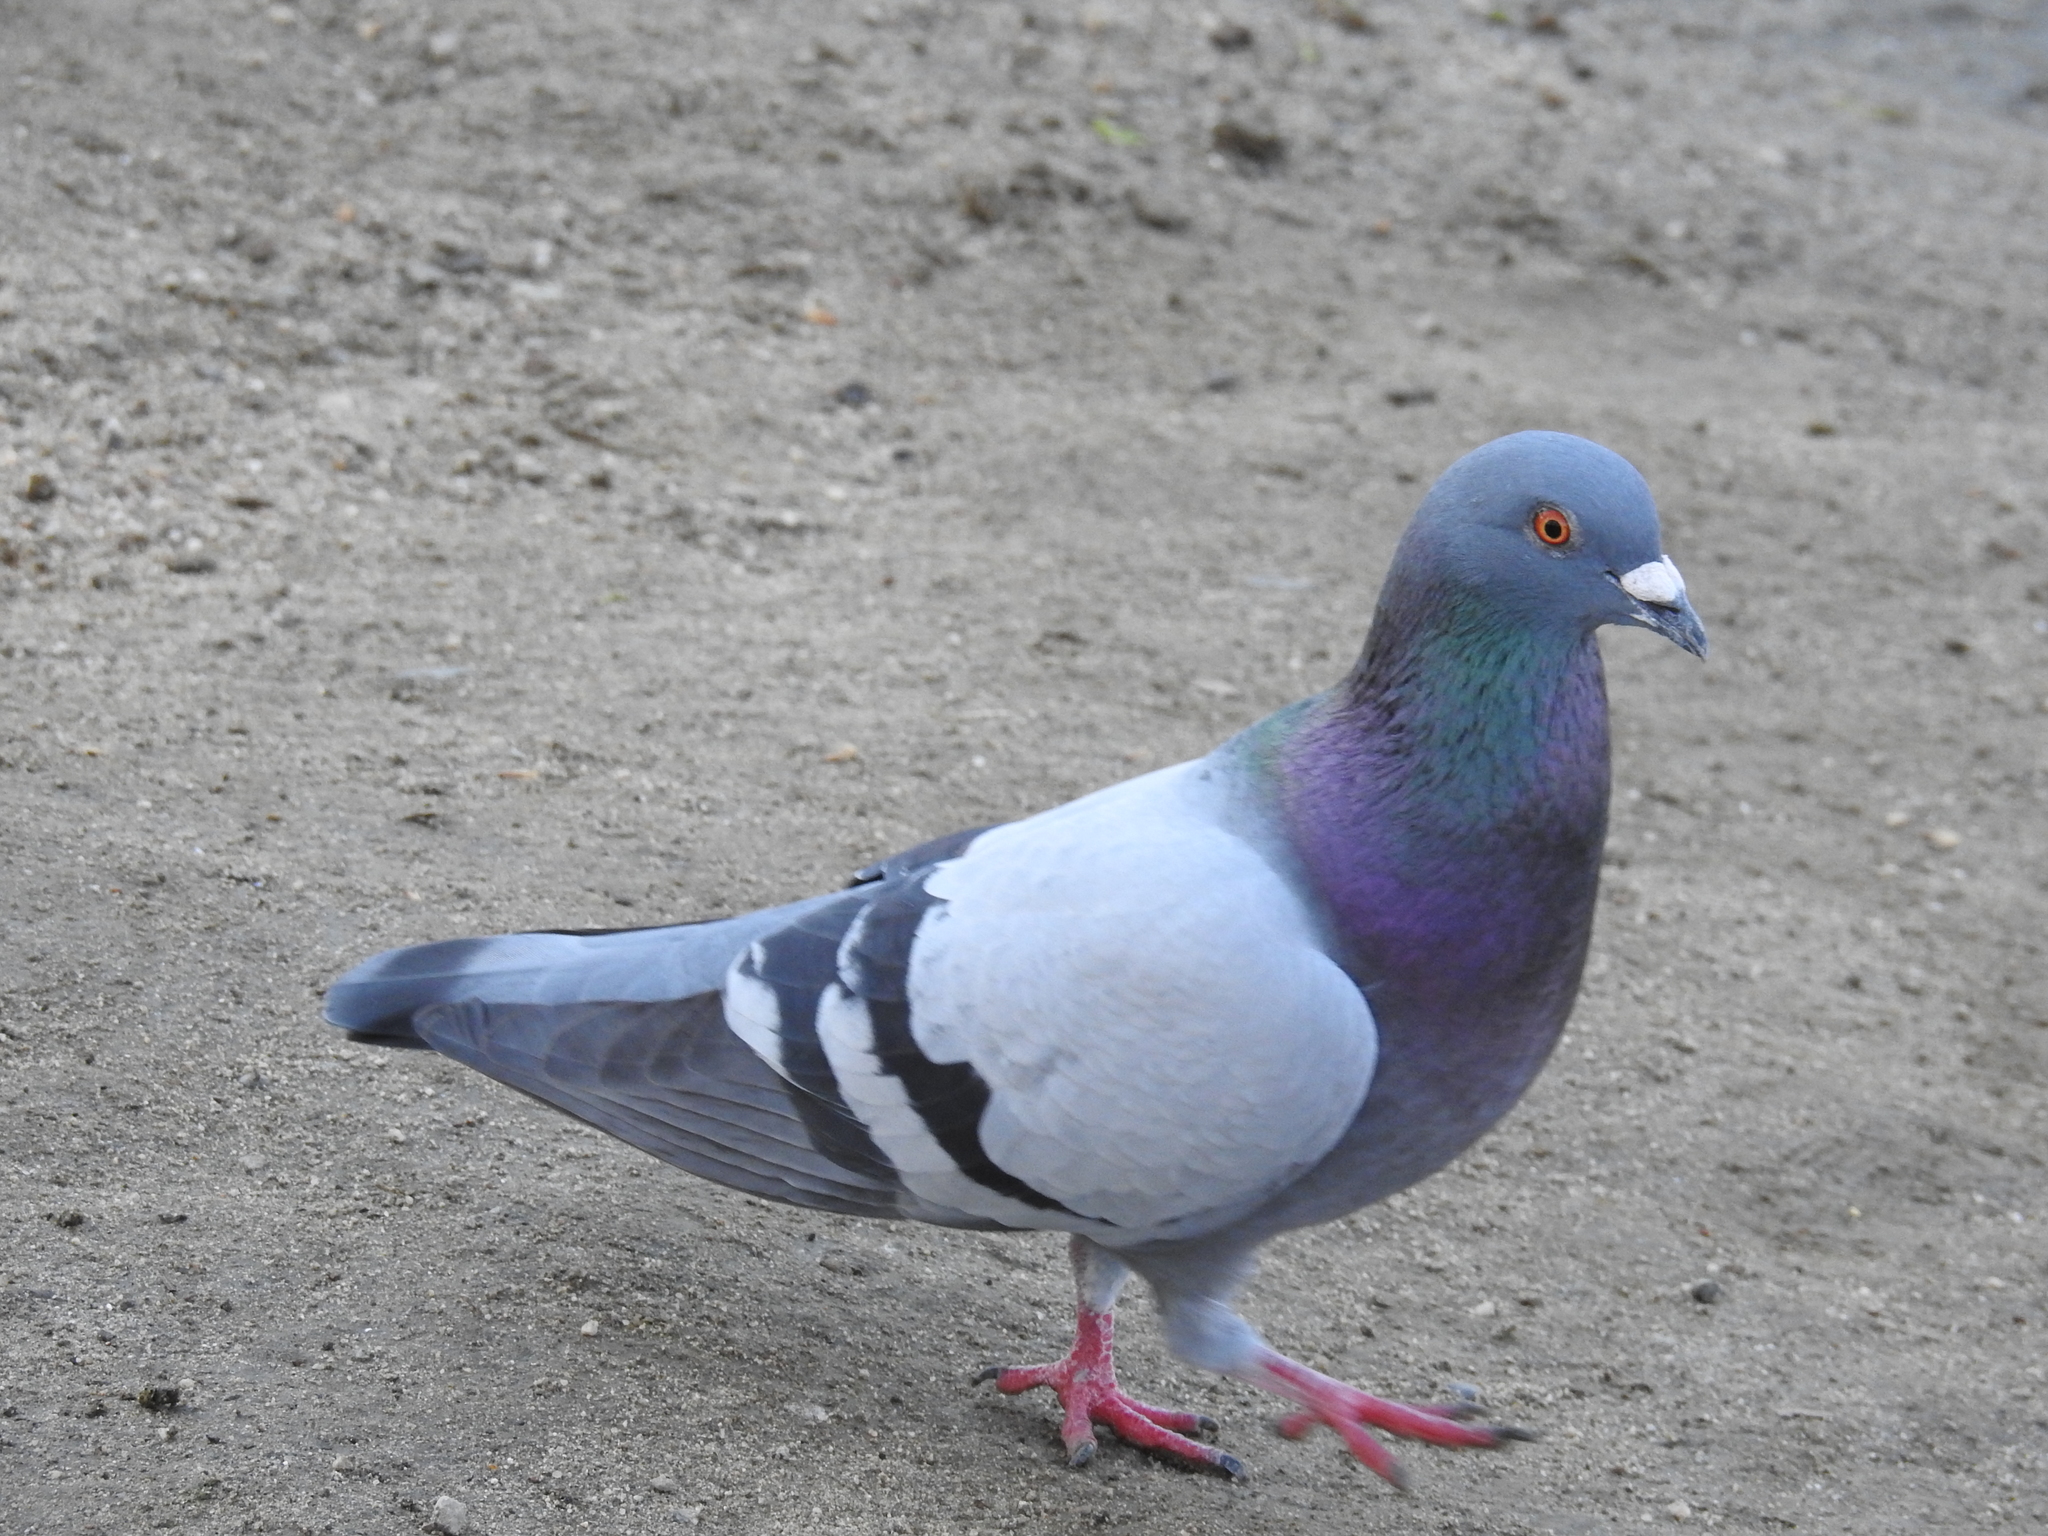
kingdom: Animalia
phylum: Chordata
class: Aves
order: Columbiformes
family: Columbidae
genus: Columba
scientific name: Columba livia
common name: Rock pigeon
